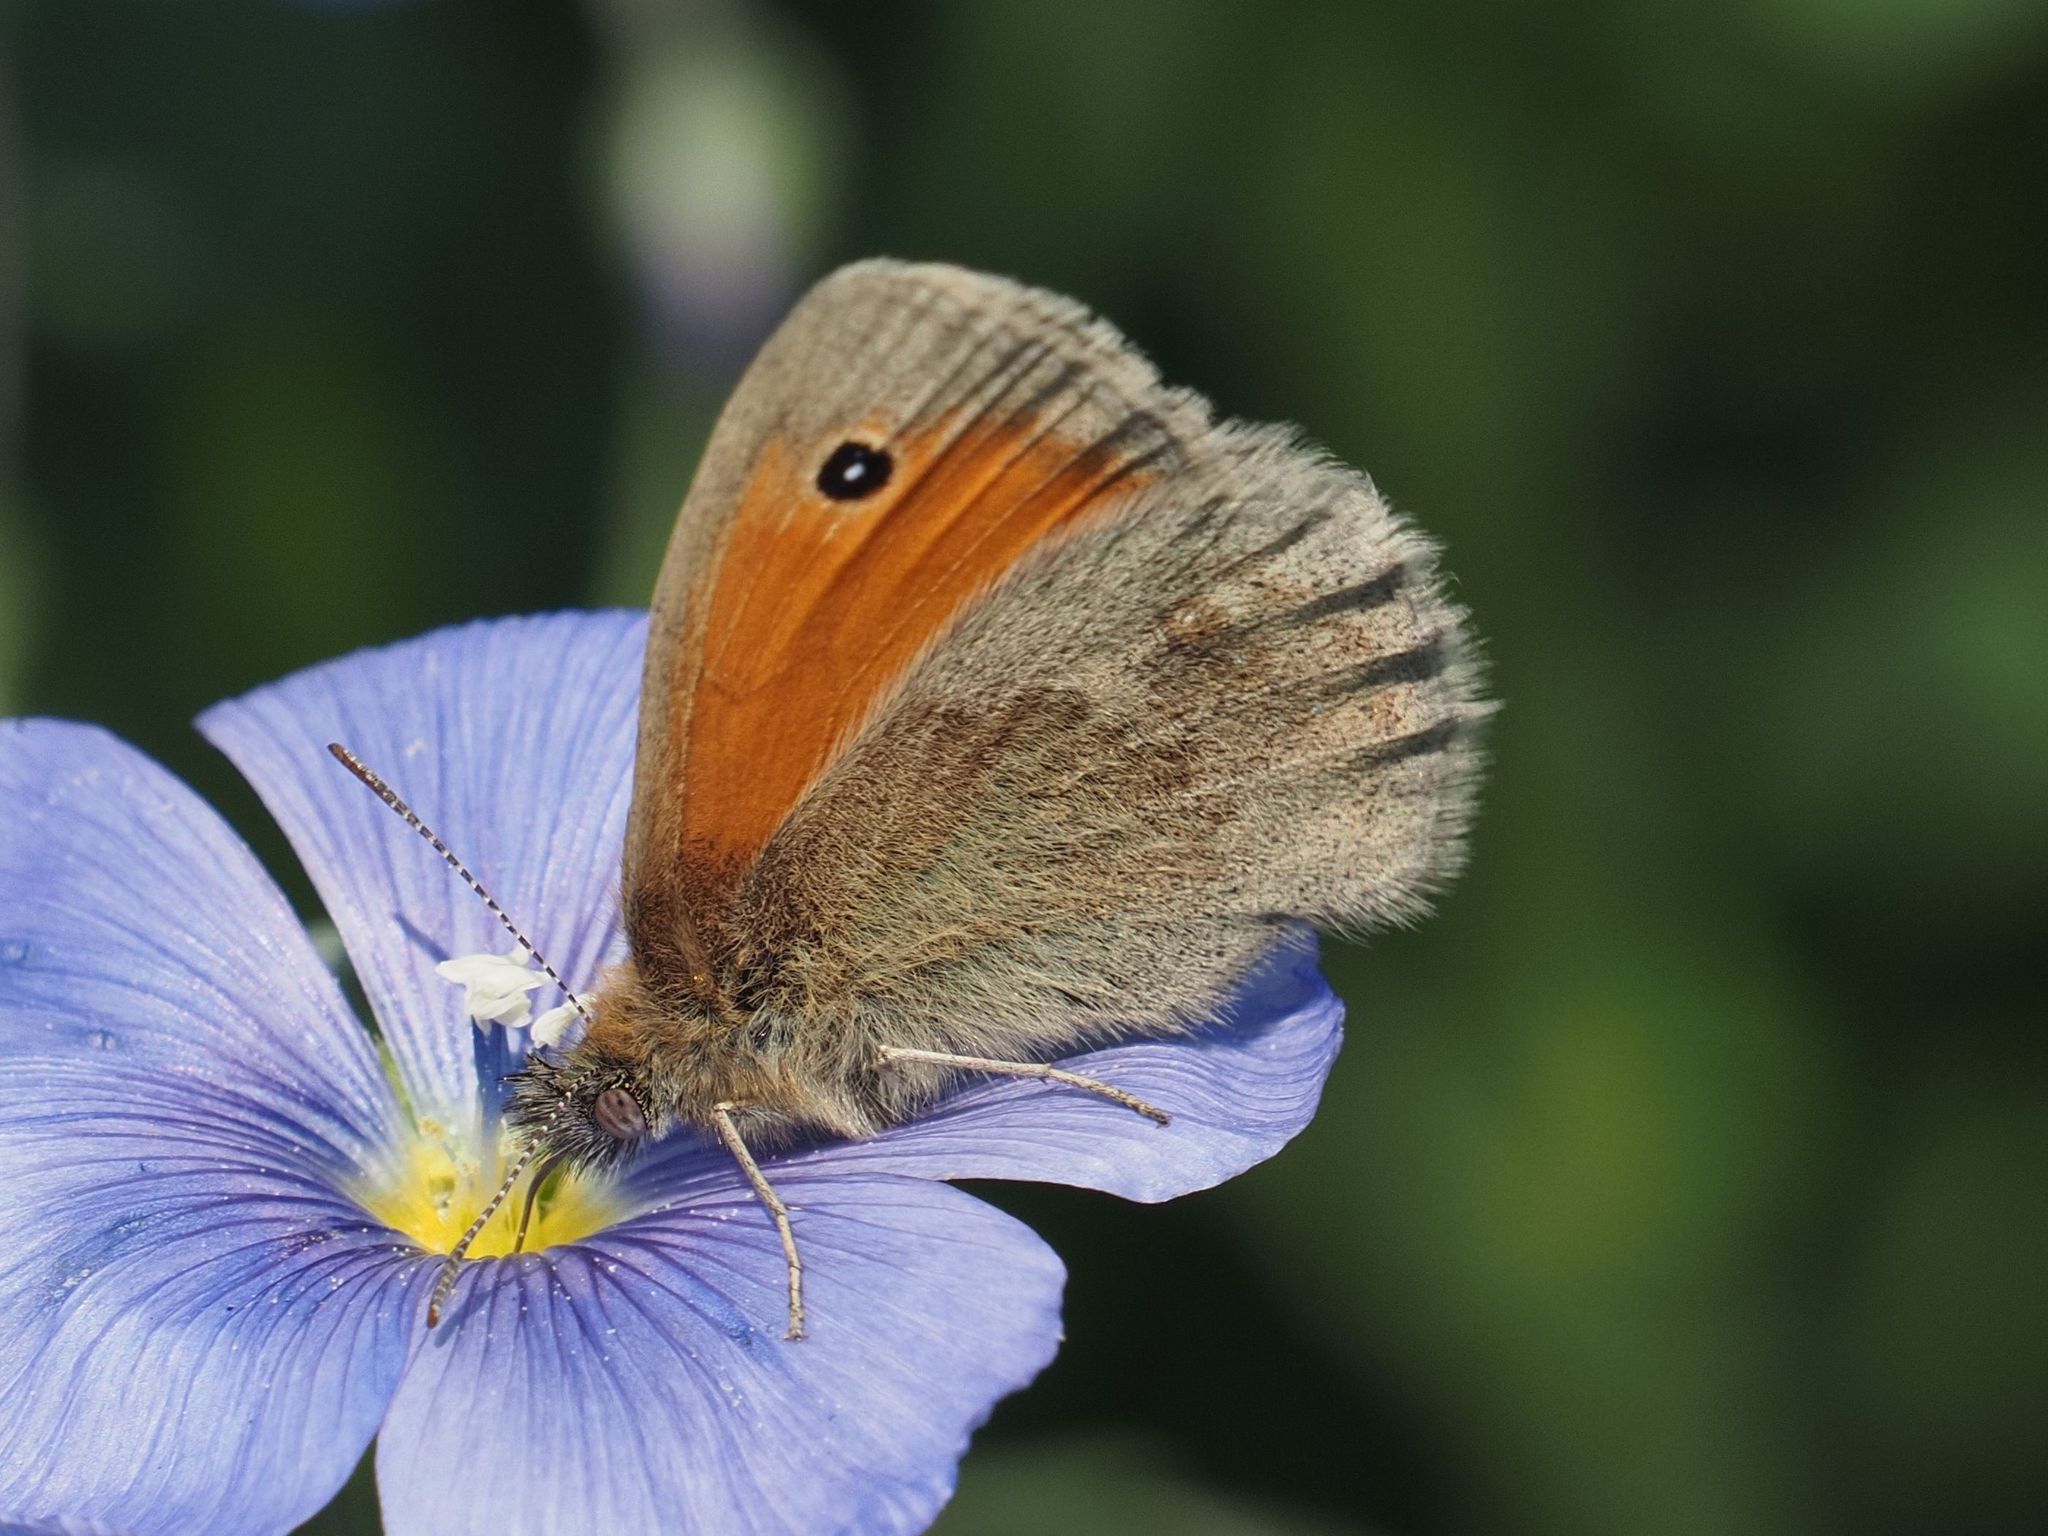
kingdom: Animalia
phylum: Arthropoda
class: Insecta
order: Lepidoptera
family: Nymphalidae
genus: Coenonympha
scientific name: Coenonympha pamphilus
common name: Small heath
